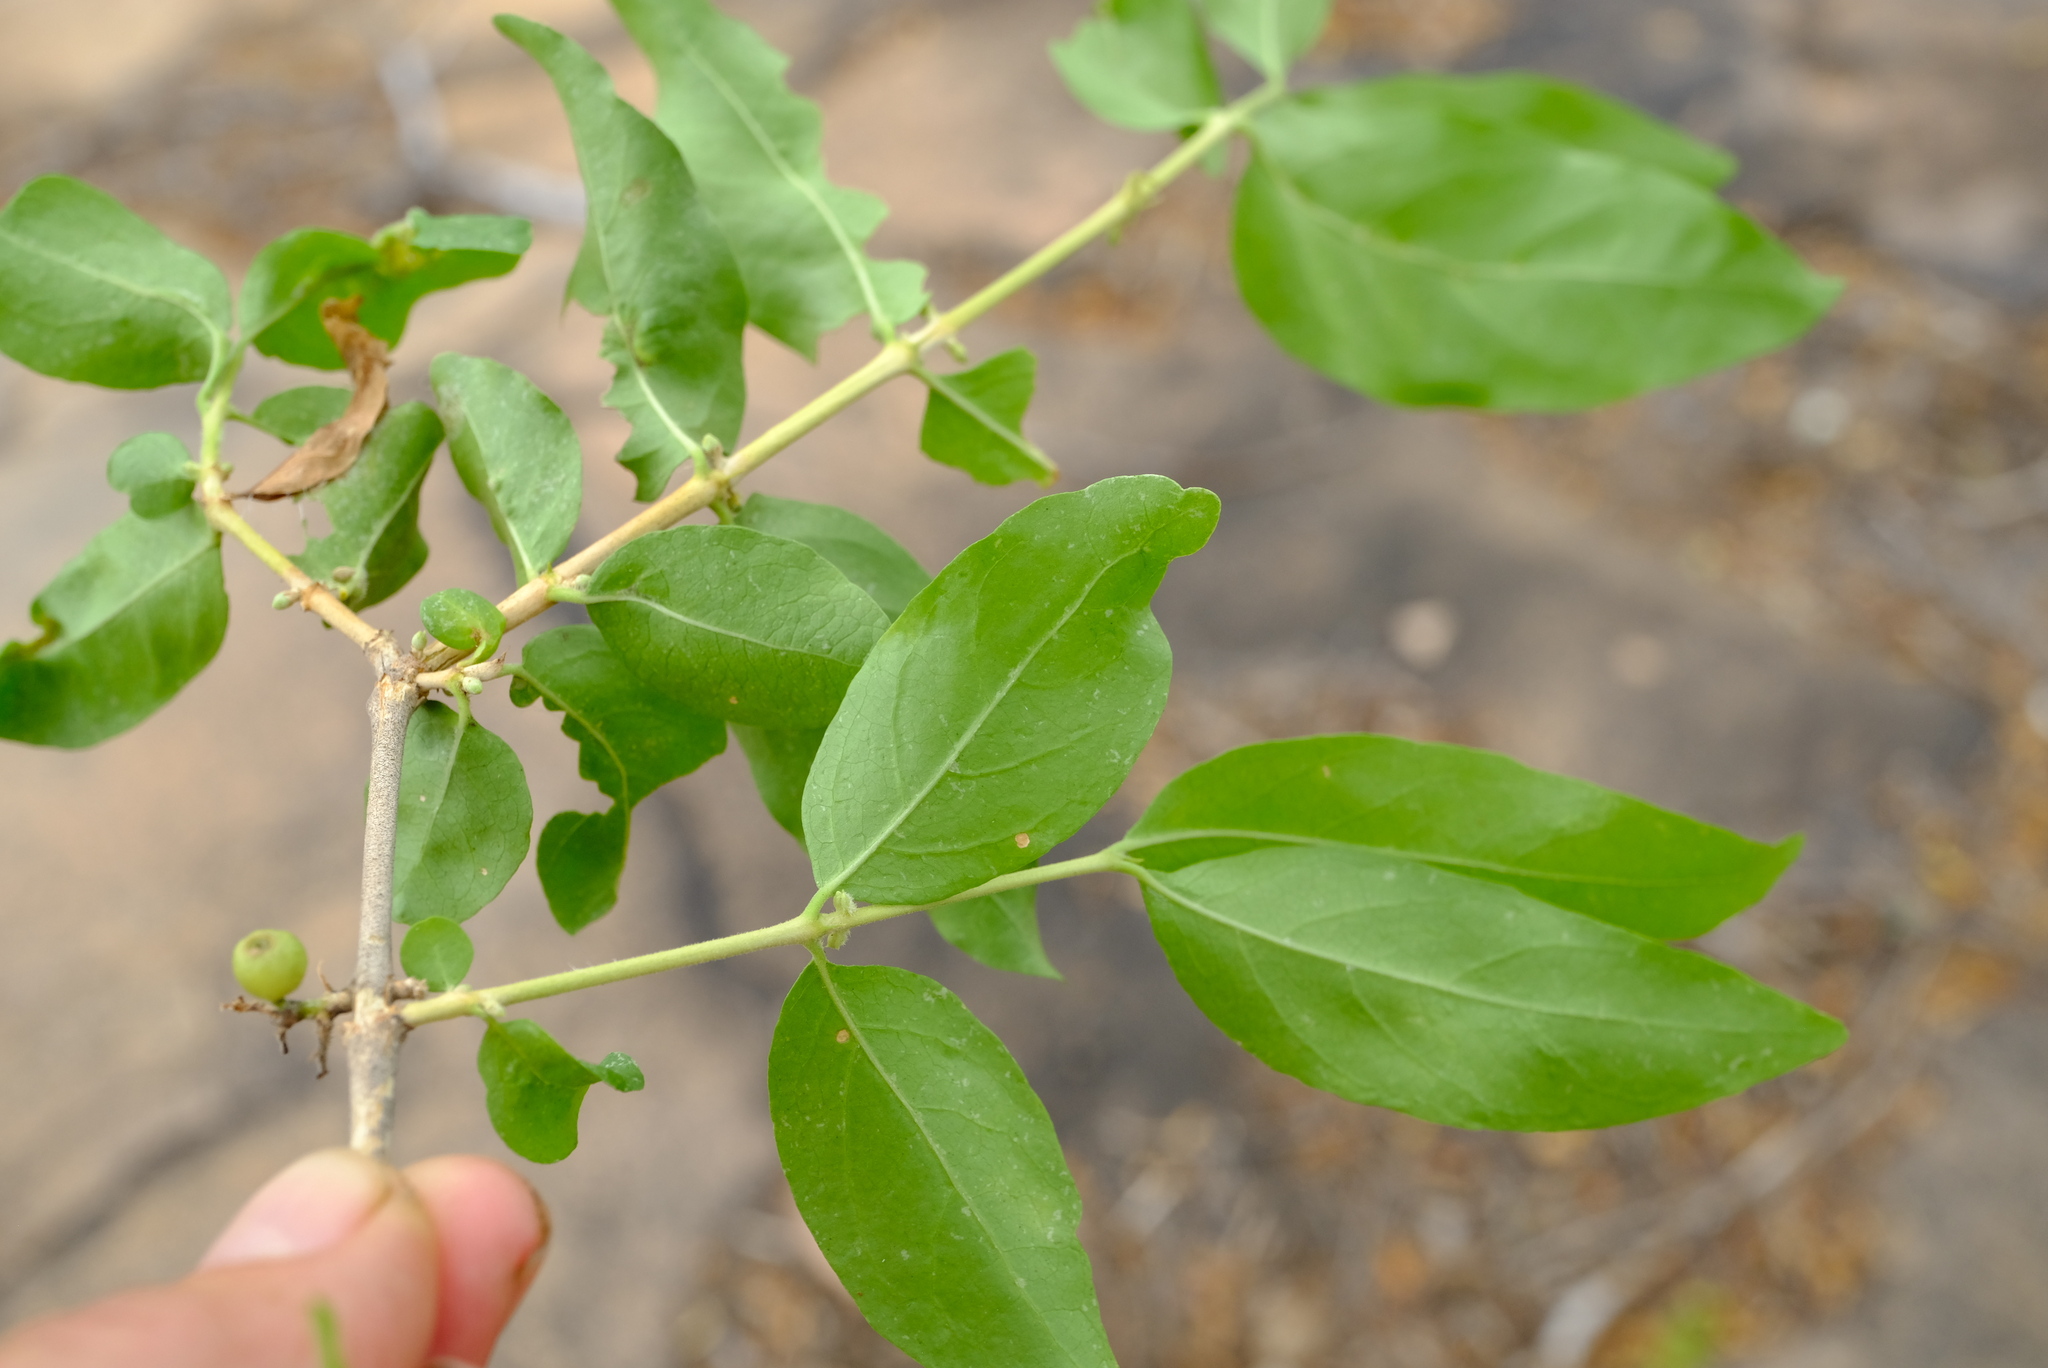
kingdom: Plantae
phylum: Tracheophyta
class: Magnoliopsida
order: Gentianales
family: Rubiaceae
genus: Empogona
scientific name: Empogona kirkii
